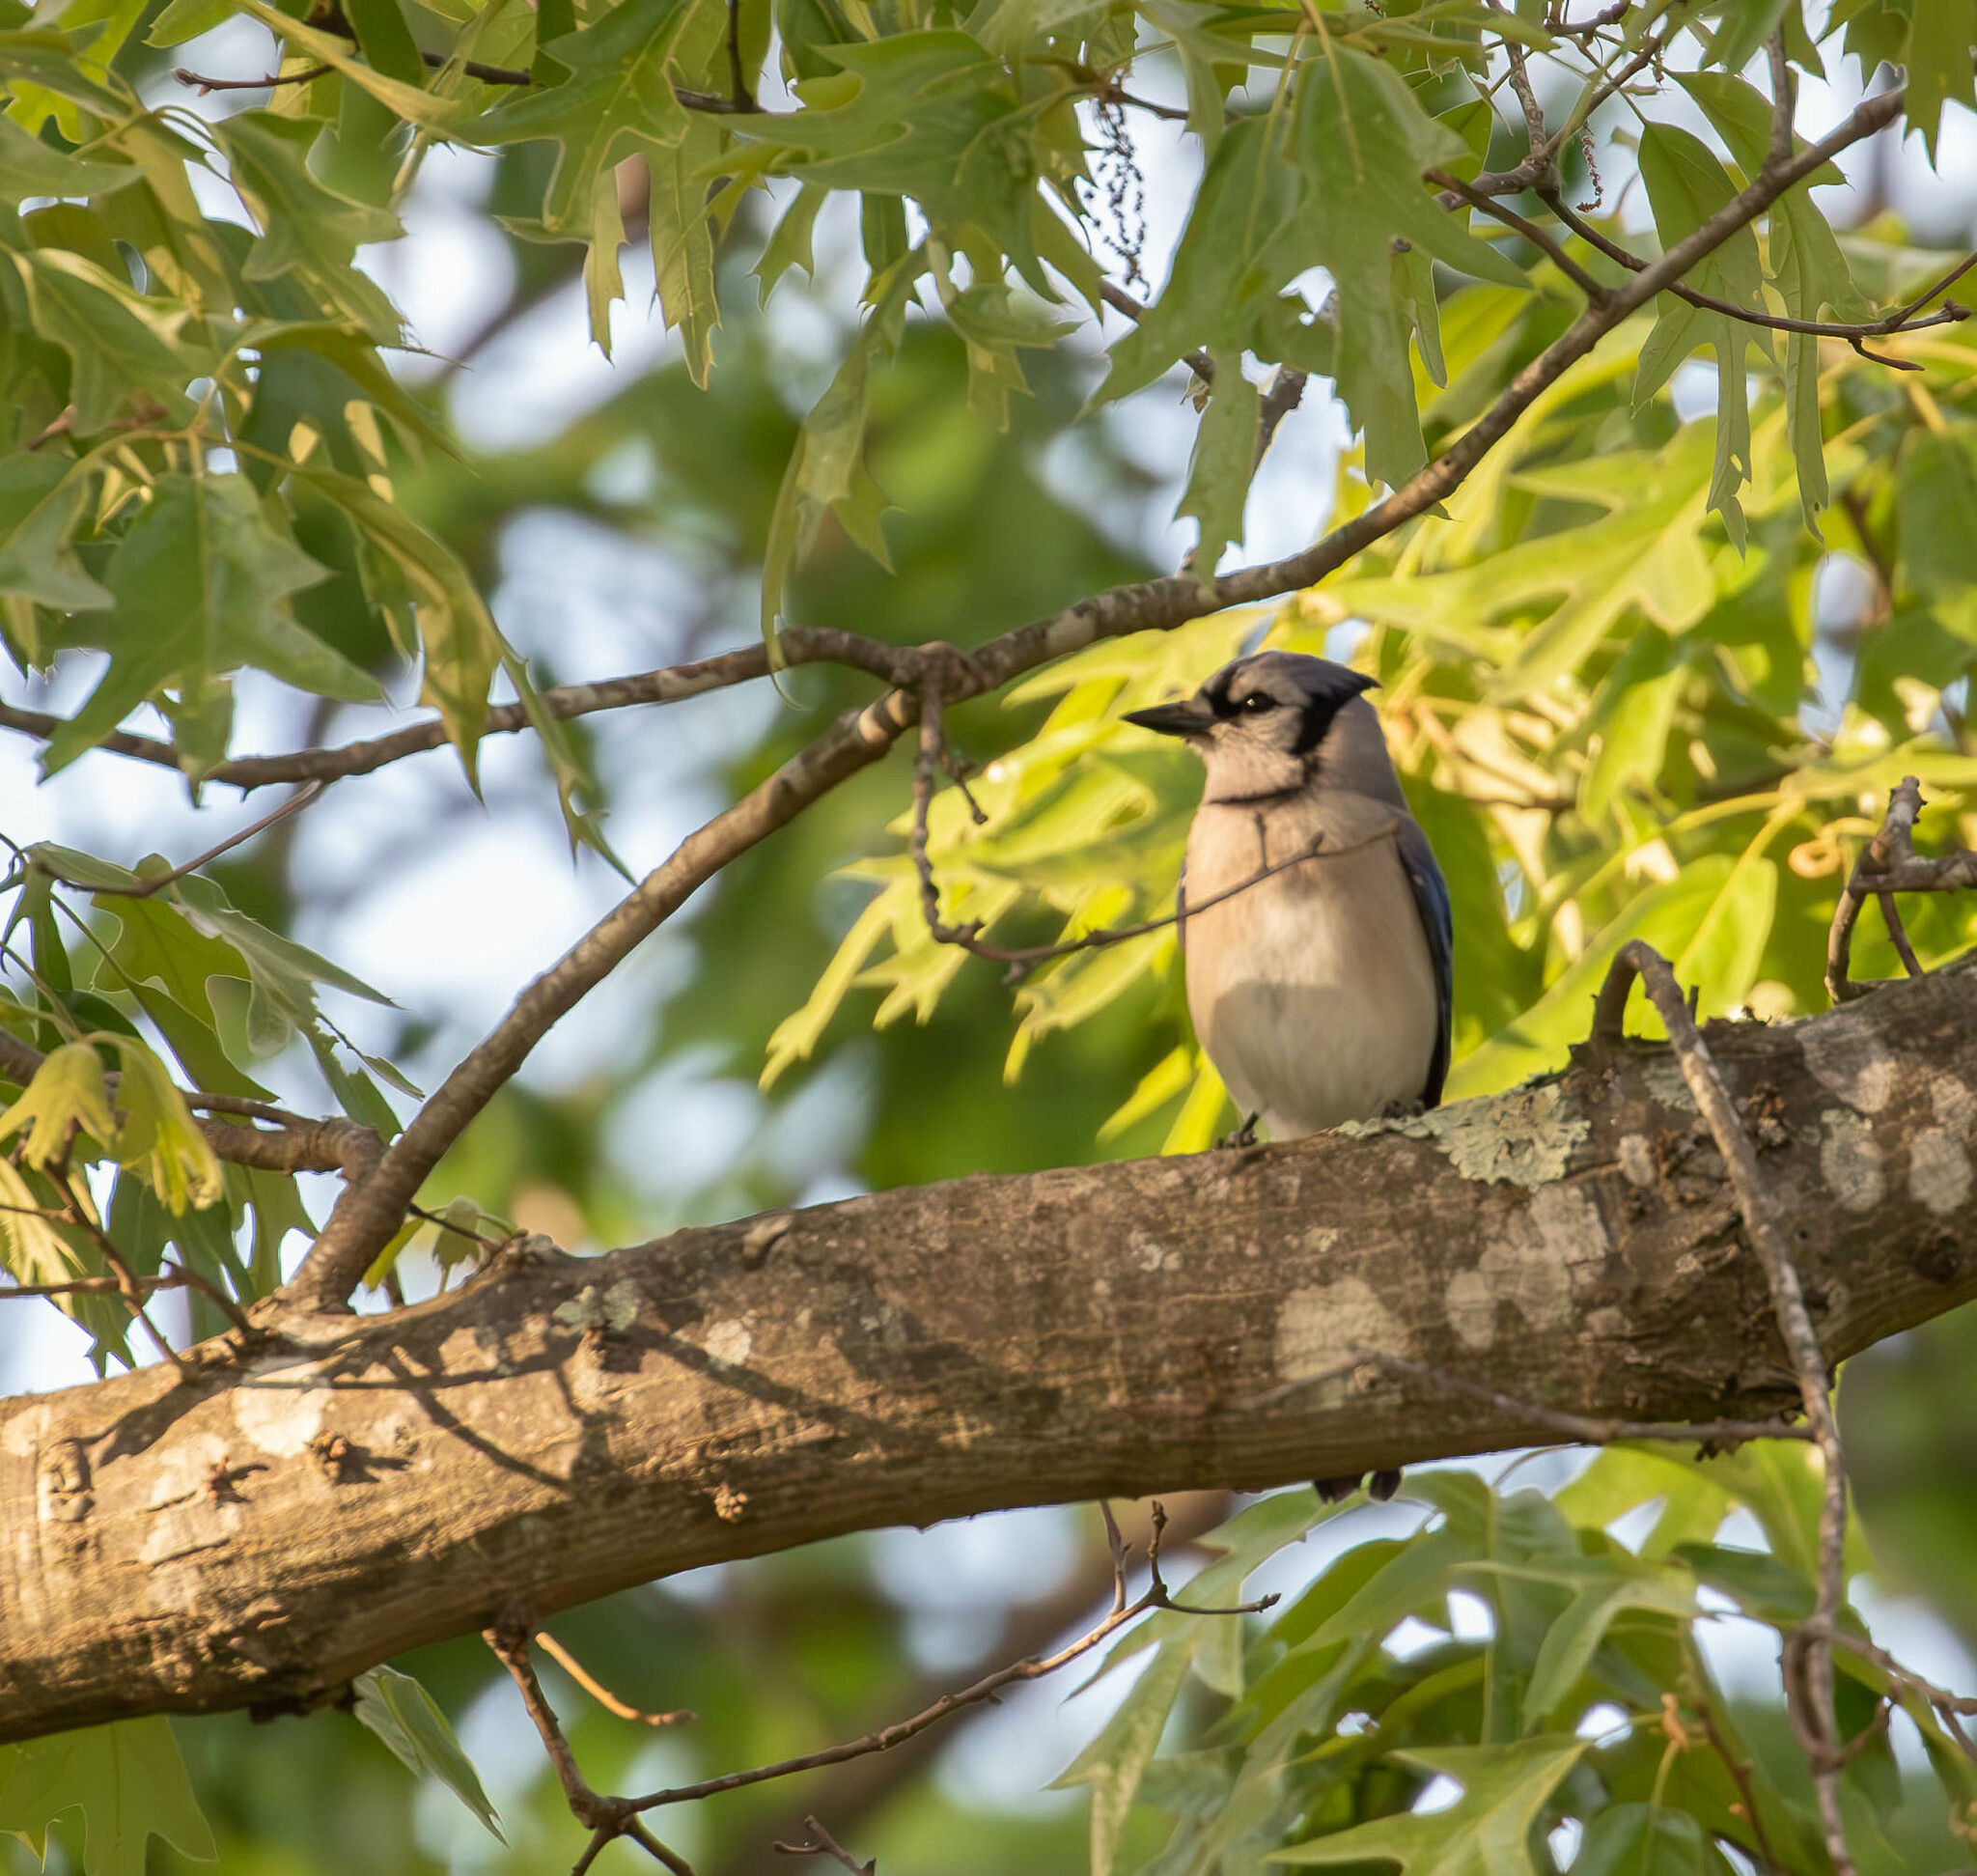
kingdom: Animalia
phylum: Chordata
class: Aves
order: Passeriformes
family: Corvidae
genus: Cyanocitta
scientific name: Cyanocitta cristata
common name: Blue jay
